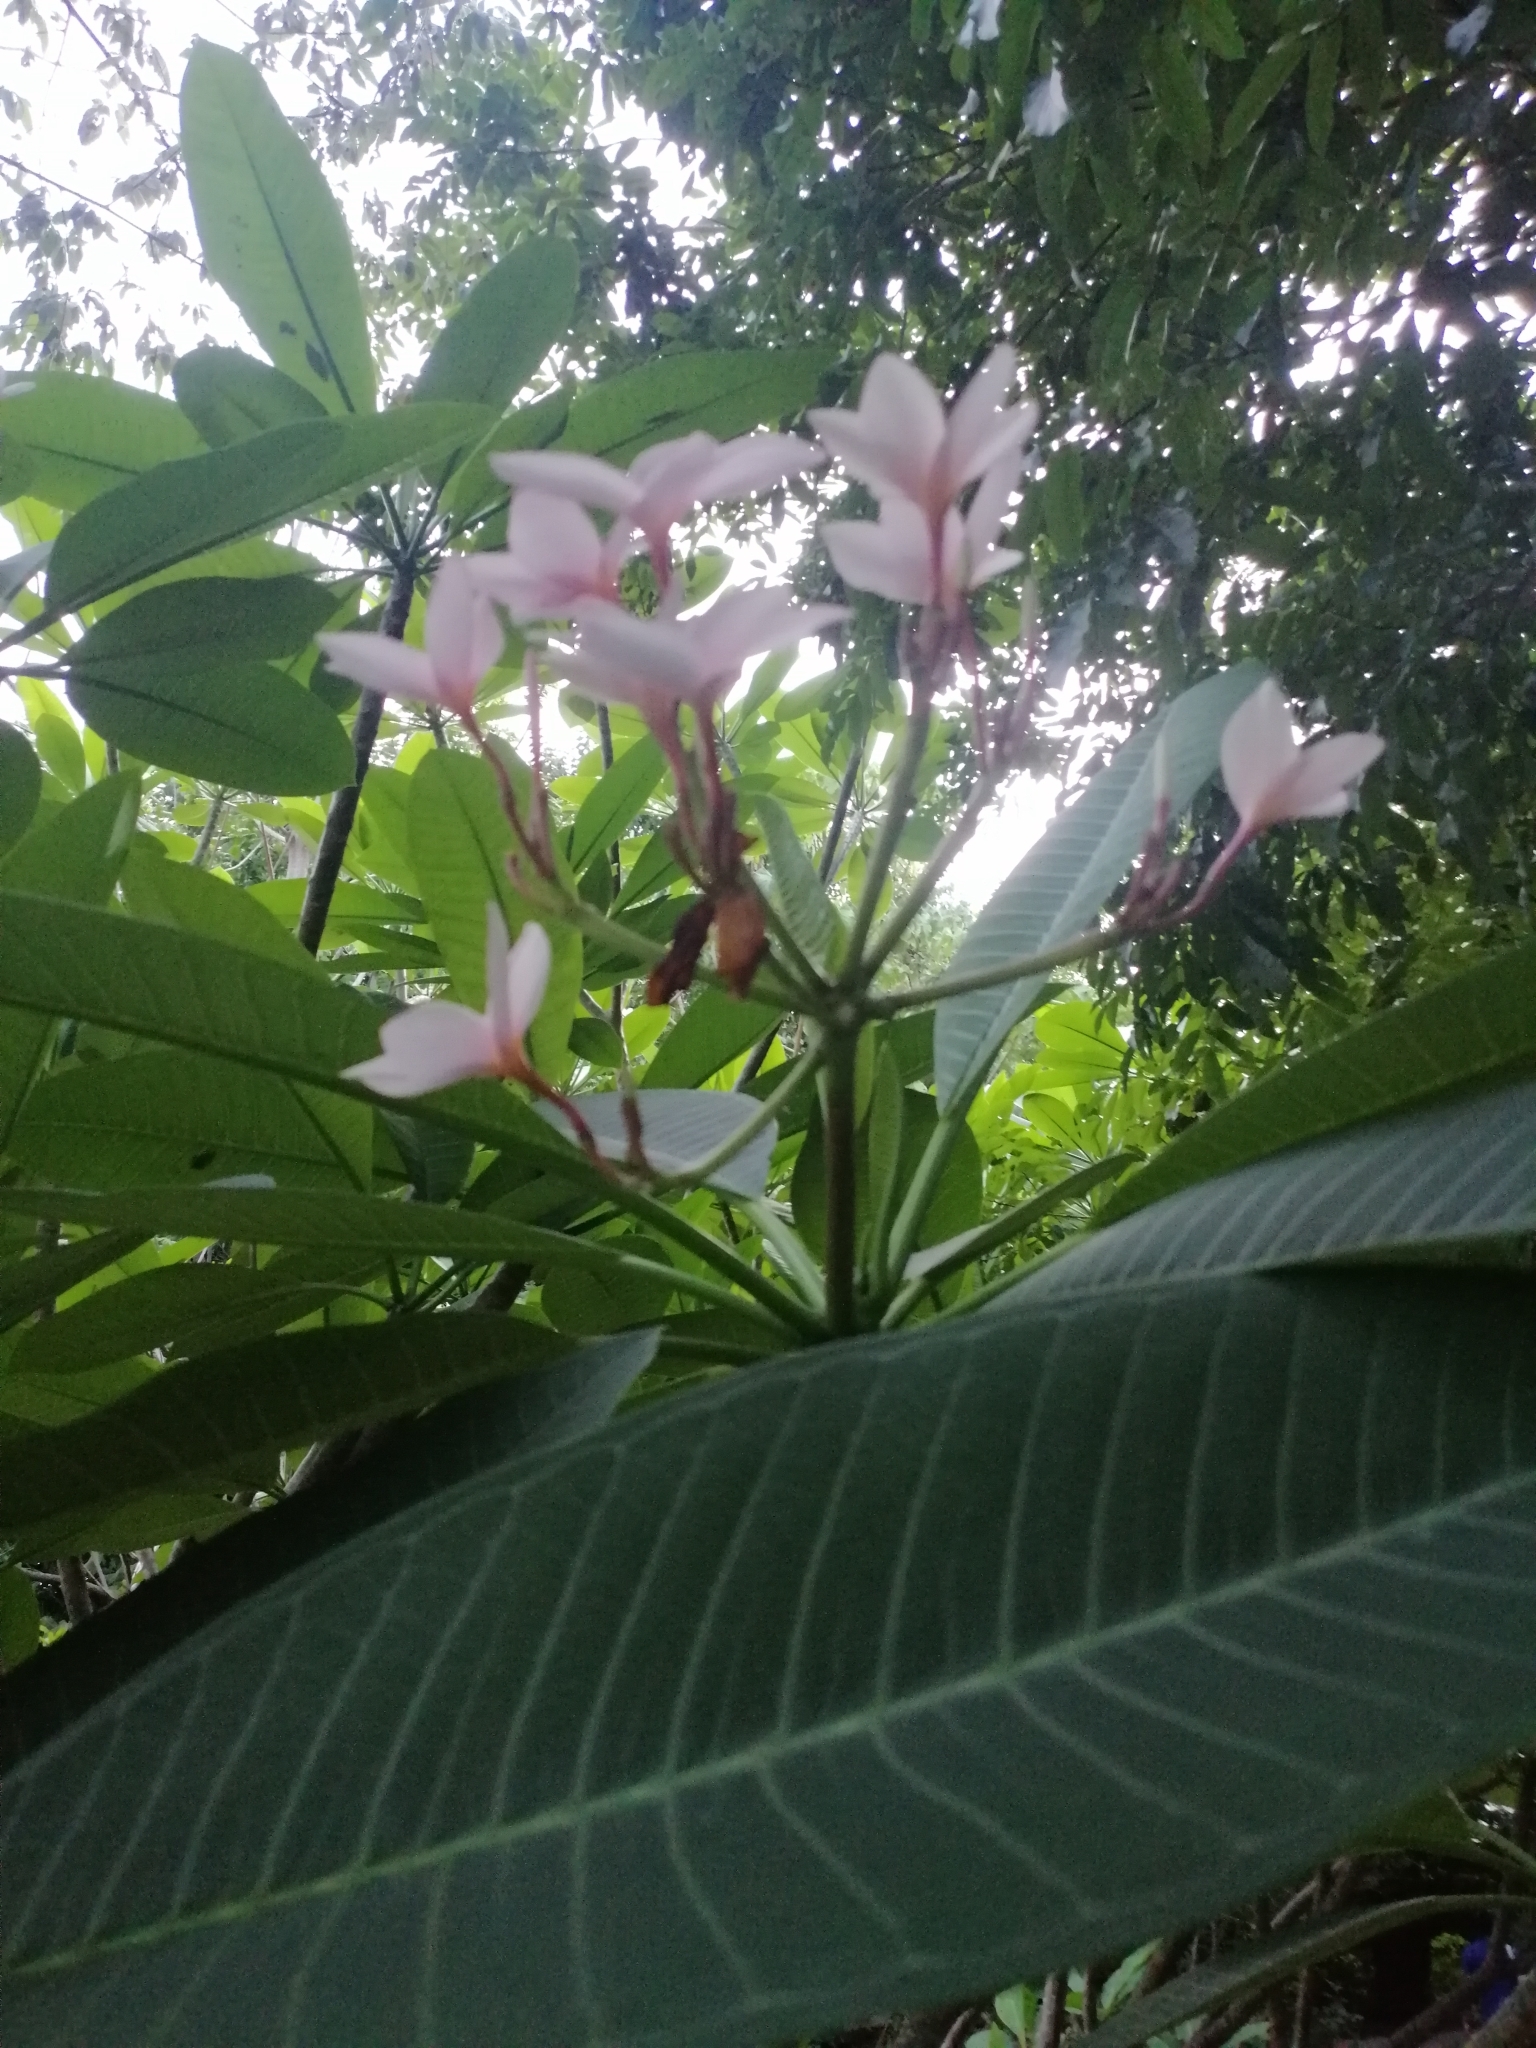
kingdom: Plantae
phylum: Tracheophyta
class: Magnoliopsida
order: Gentianales
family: Apocynaceae
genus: Plumeria
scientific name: Plumeria rubra
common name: Pagoda-tree
